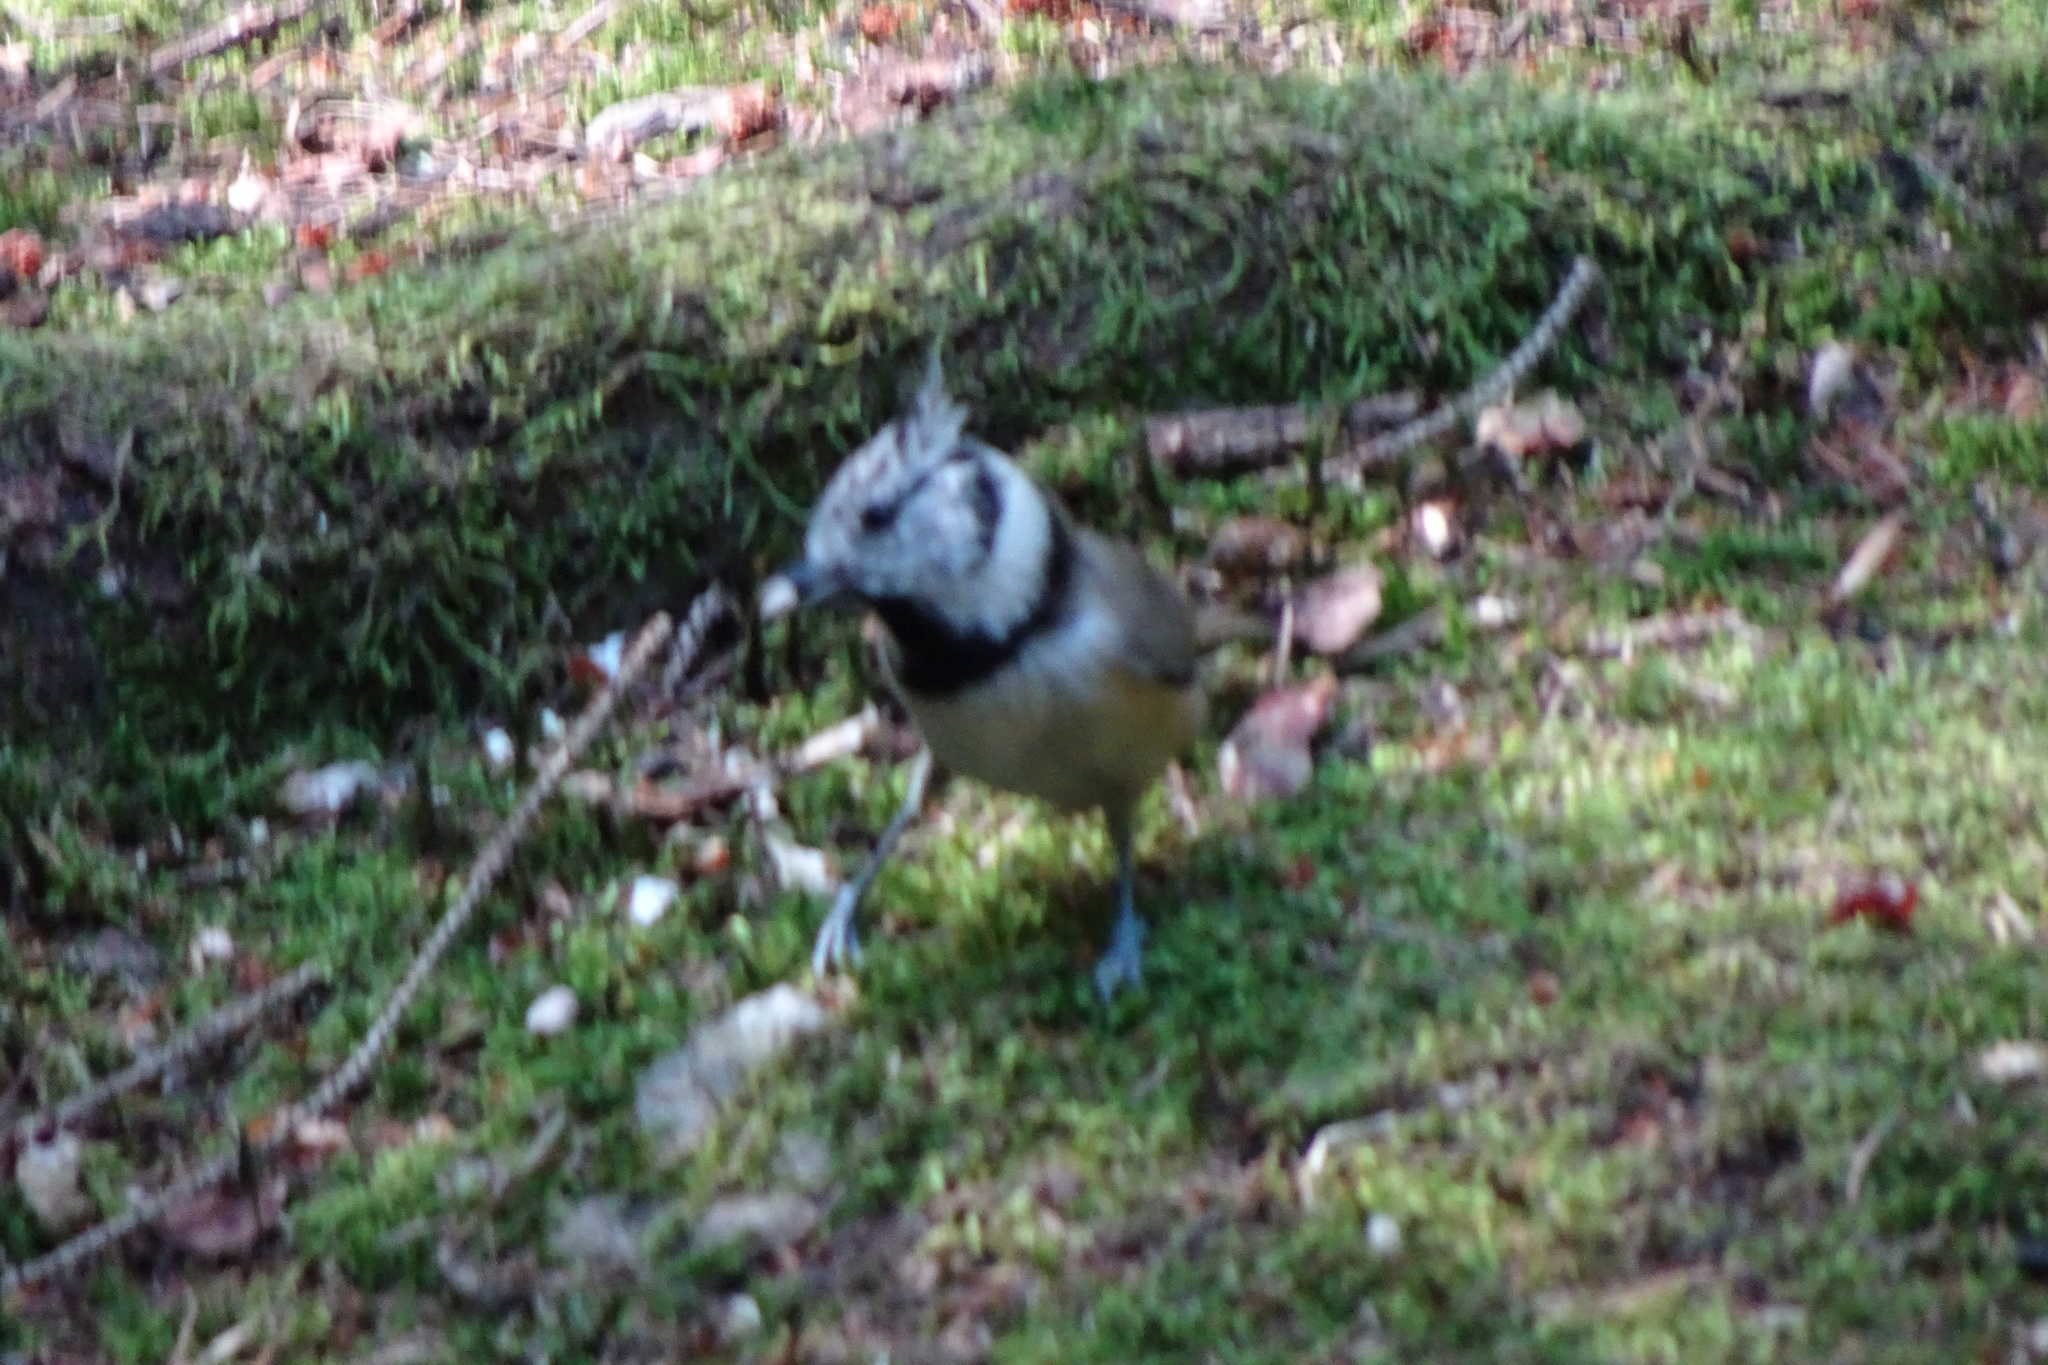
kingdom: Animalia
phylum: Chordata
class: Aves
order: Passeriformes
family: Paridae
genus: Lophophanes
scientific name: Lophophanes cristatus
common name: European crested tit
